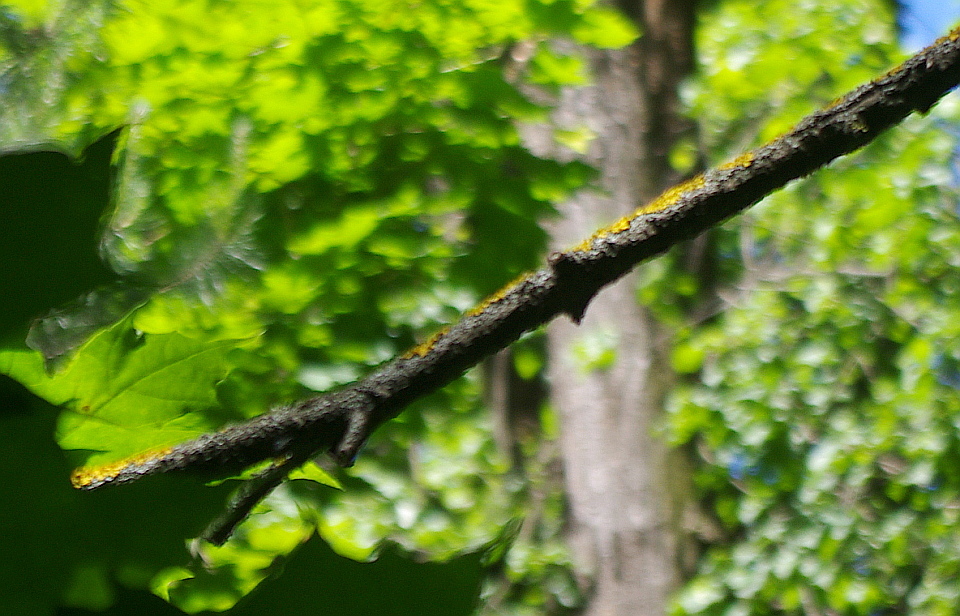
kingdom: Fungi
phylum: Ascomycota
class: Lecanoromycetes
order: Teloschistales
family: Teloschistaceae
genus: Xanthoria
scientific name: Xanthoria parietina
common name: Common orange lichen
